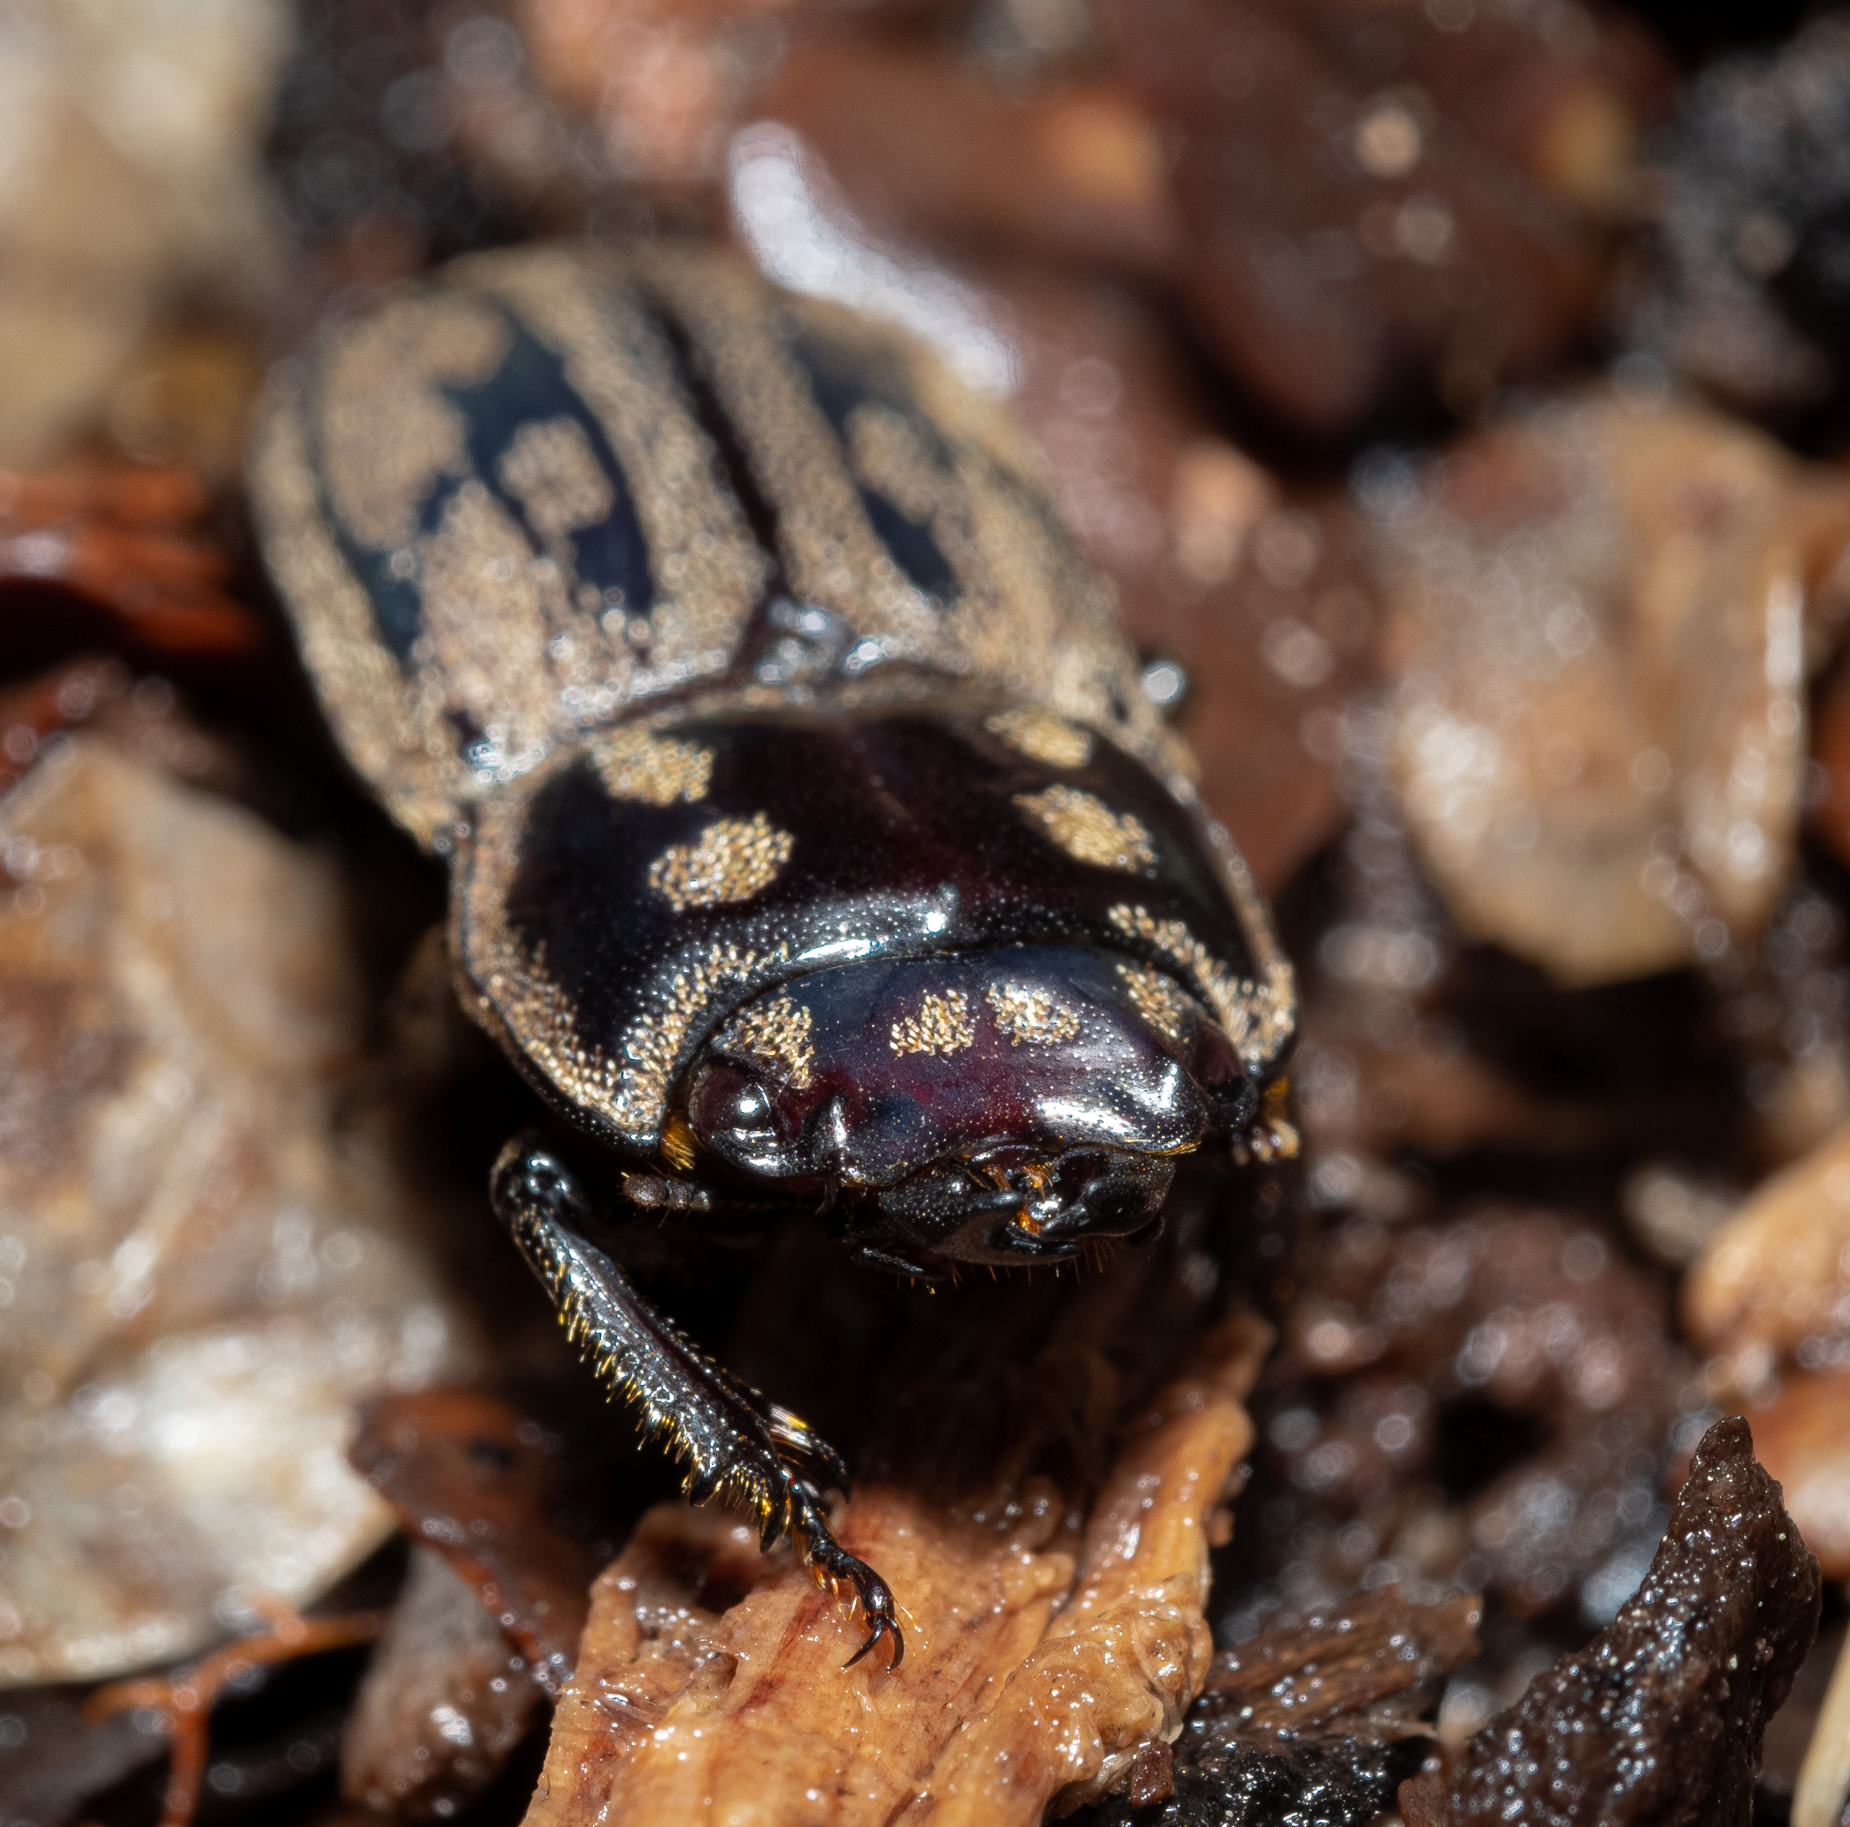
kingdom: Animalia
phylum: Arthropoda
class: Insecta
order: Coleoptera
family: Lucanidae
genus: Paralissotes
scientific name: Paralissotes reticulatus
